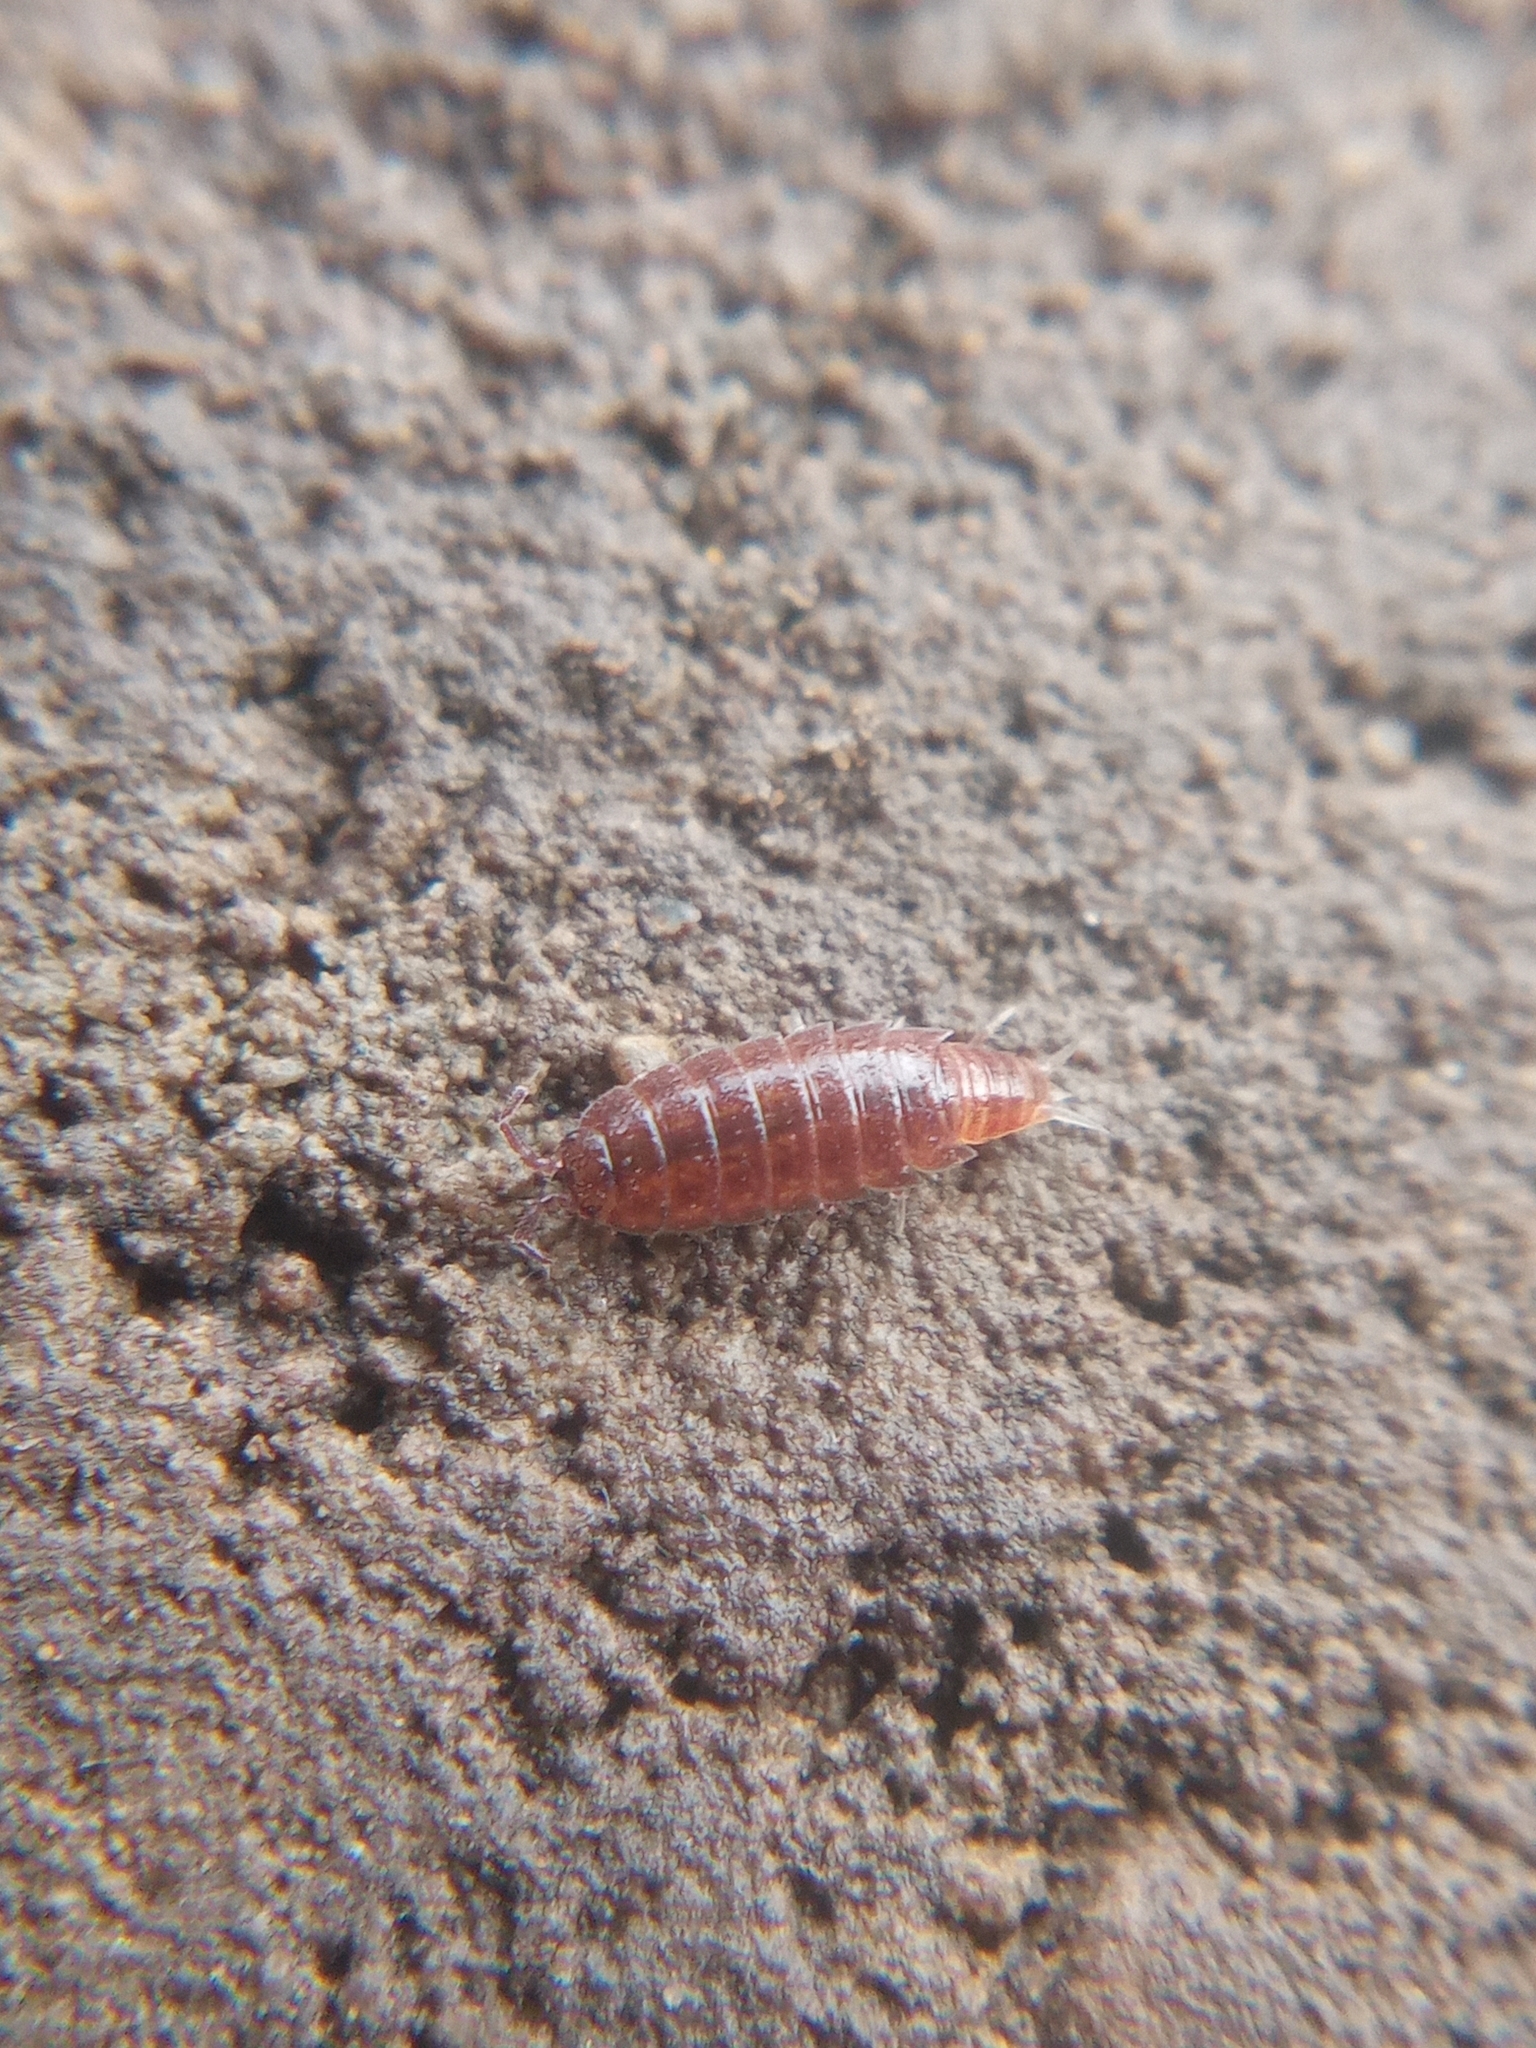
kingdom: Animalia
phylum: Arthropoda
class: Malacostraca
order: Isopoda
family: Trichoniscidae
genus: Hyloniscus
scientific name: Hyloniscus riparius
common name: Isopod
